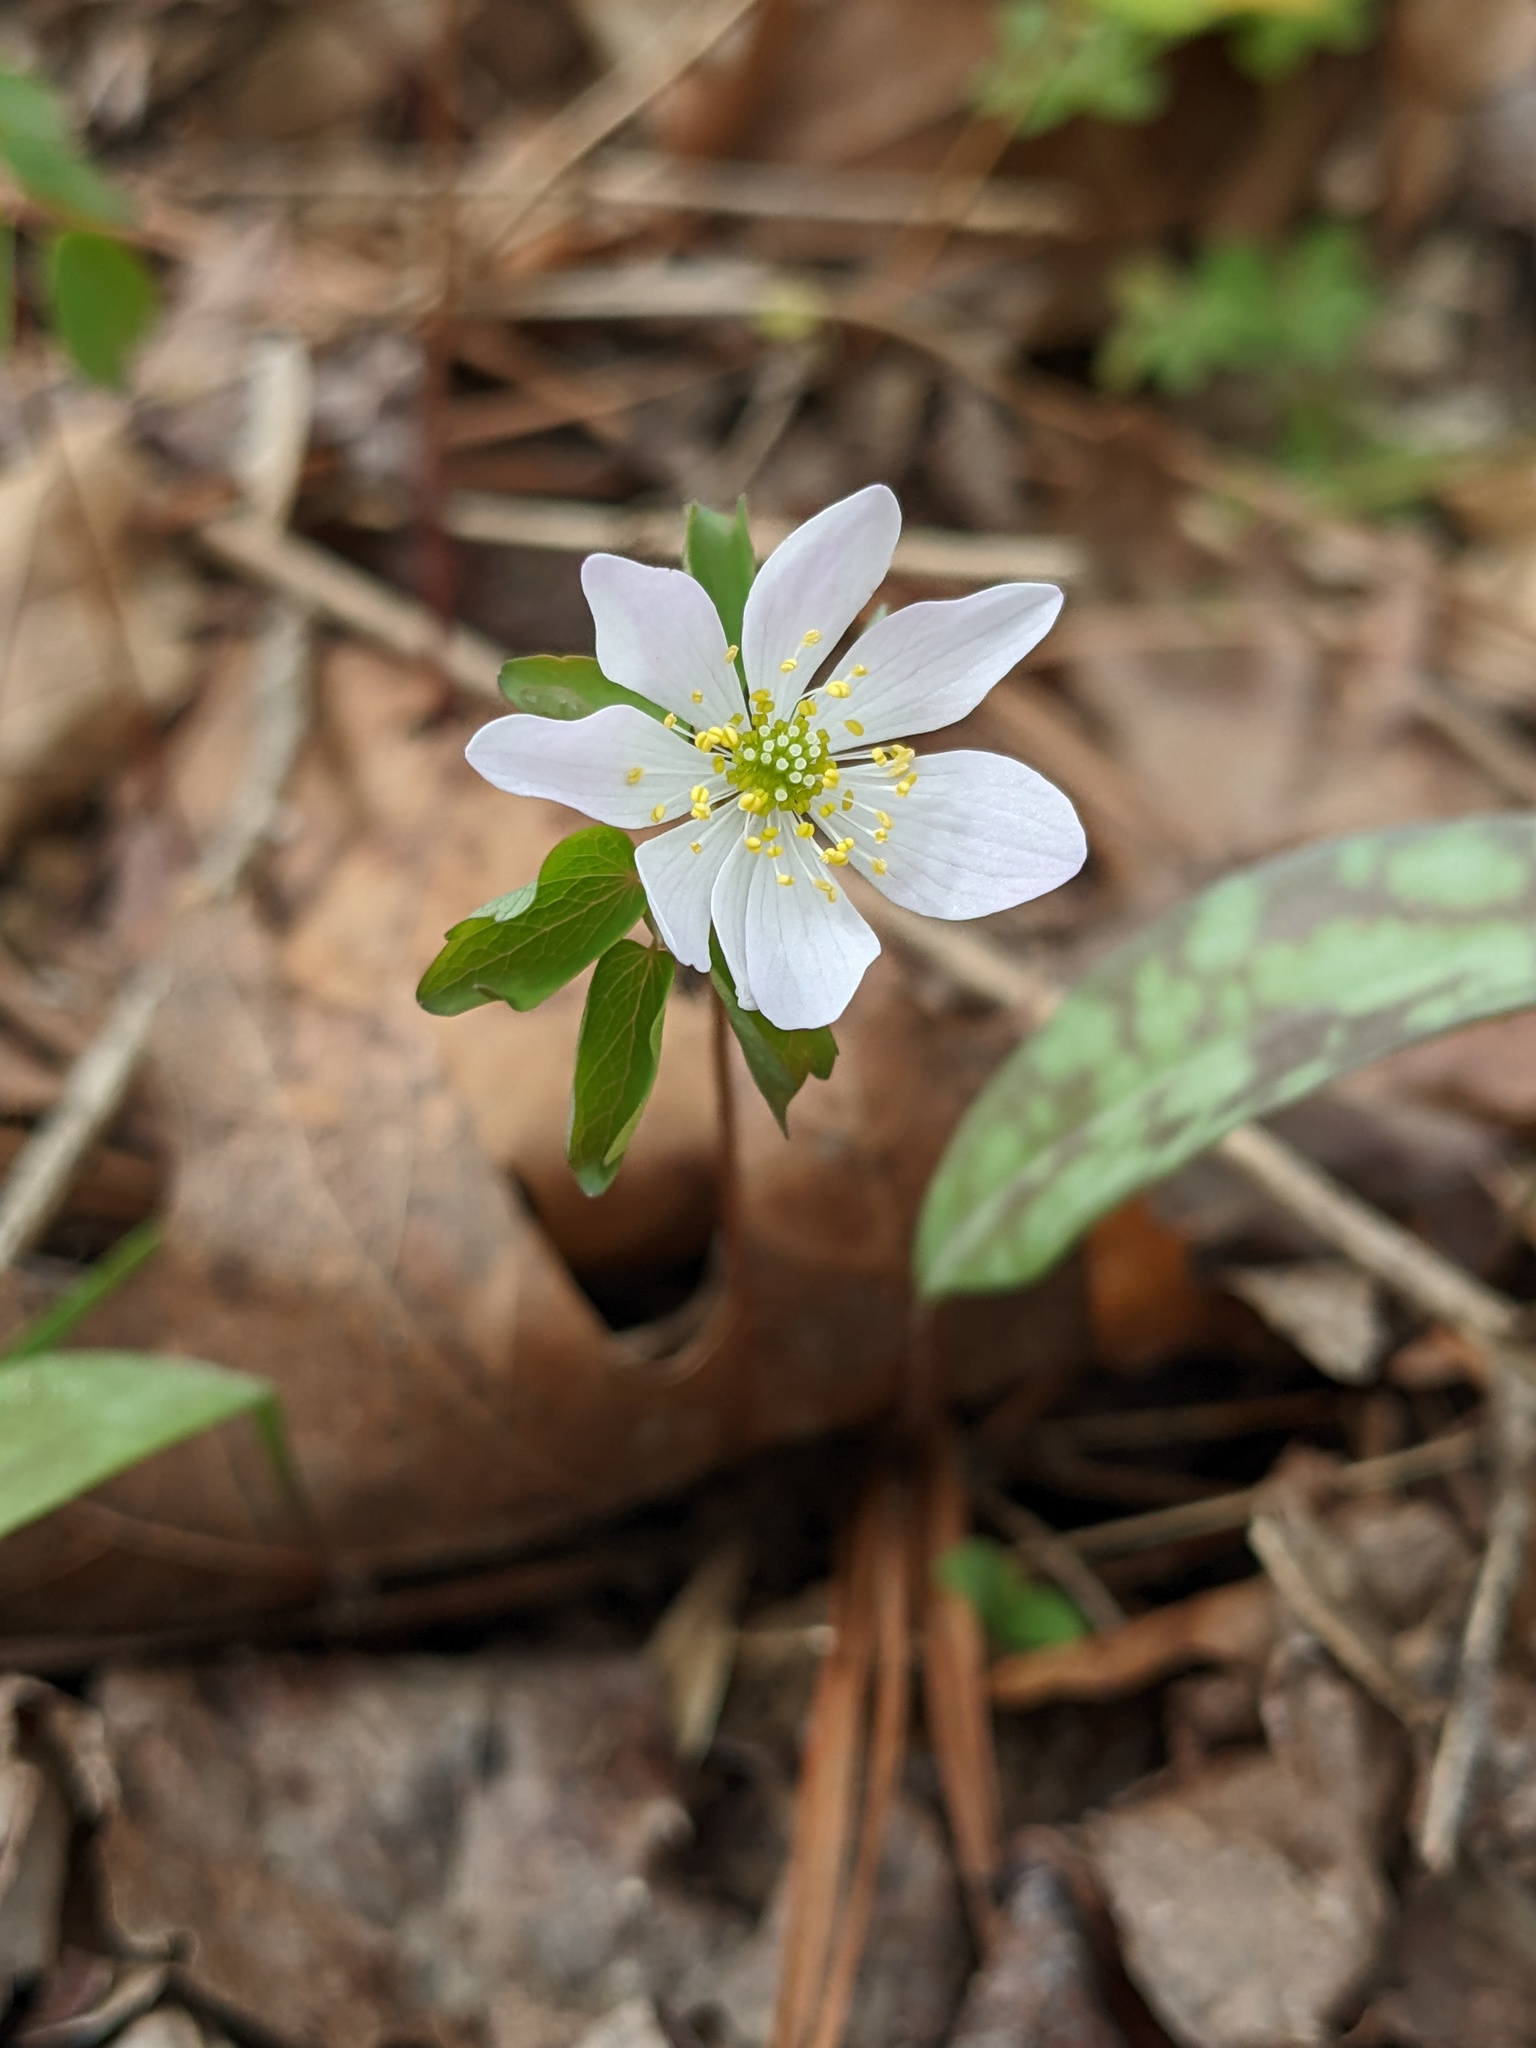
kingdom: Plantae
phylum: Tracheophyta
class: Magnoliopsida
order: Ranunculales
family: Ranunculaceae
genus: Thalictrum
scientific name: Thalictrum thalictroides
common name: Rue-anemone
